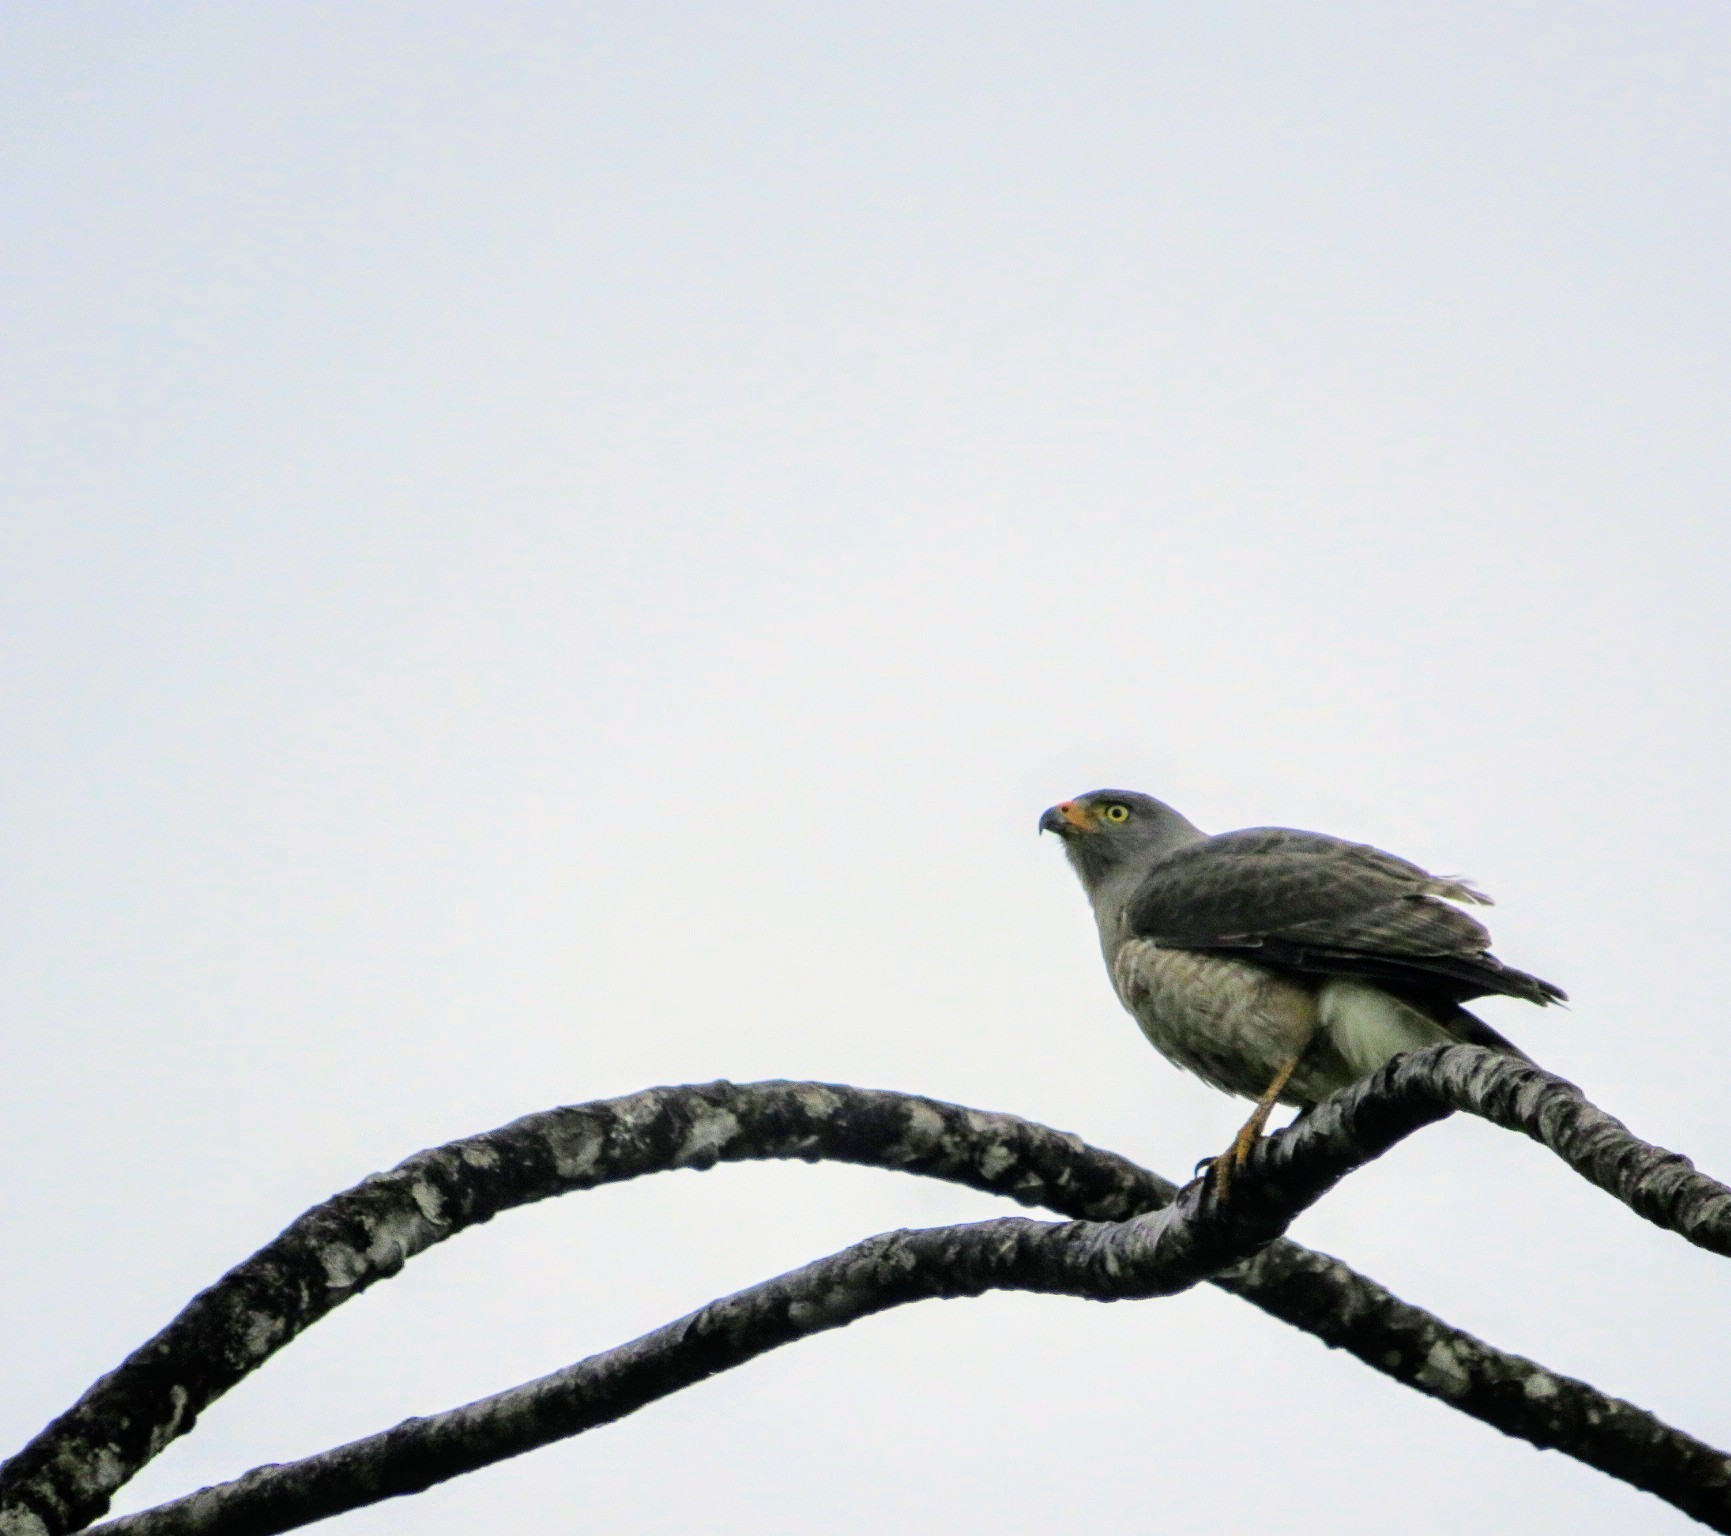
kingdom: Animalia
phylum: Chordata
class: Aves
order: Accipitriformes
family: Accipitridae
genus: Rupornis
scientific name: Rupornis magnirostris
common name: Roadside hawk
